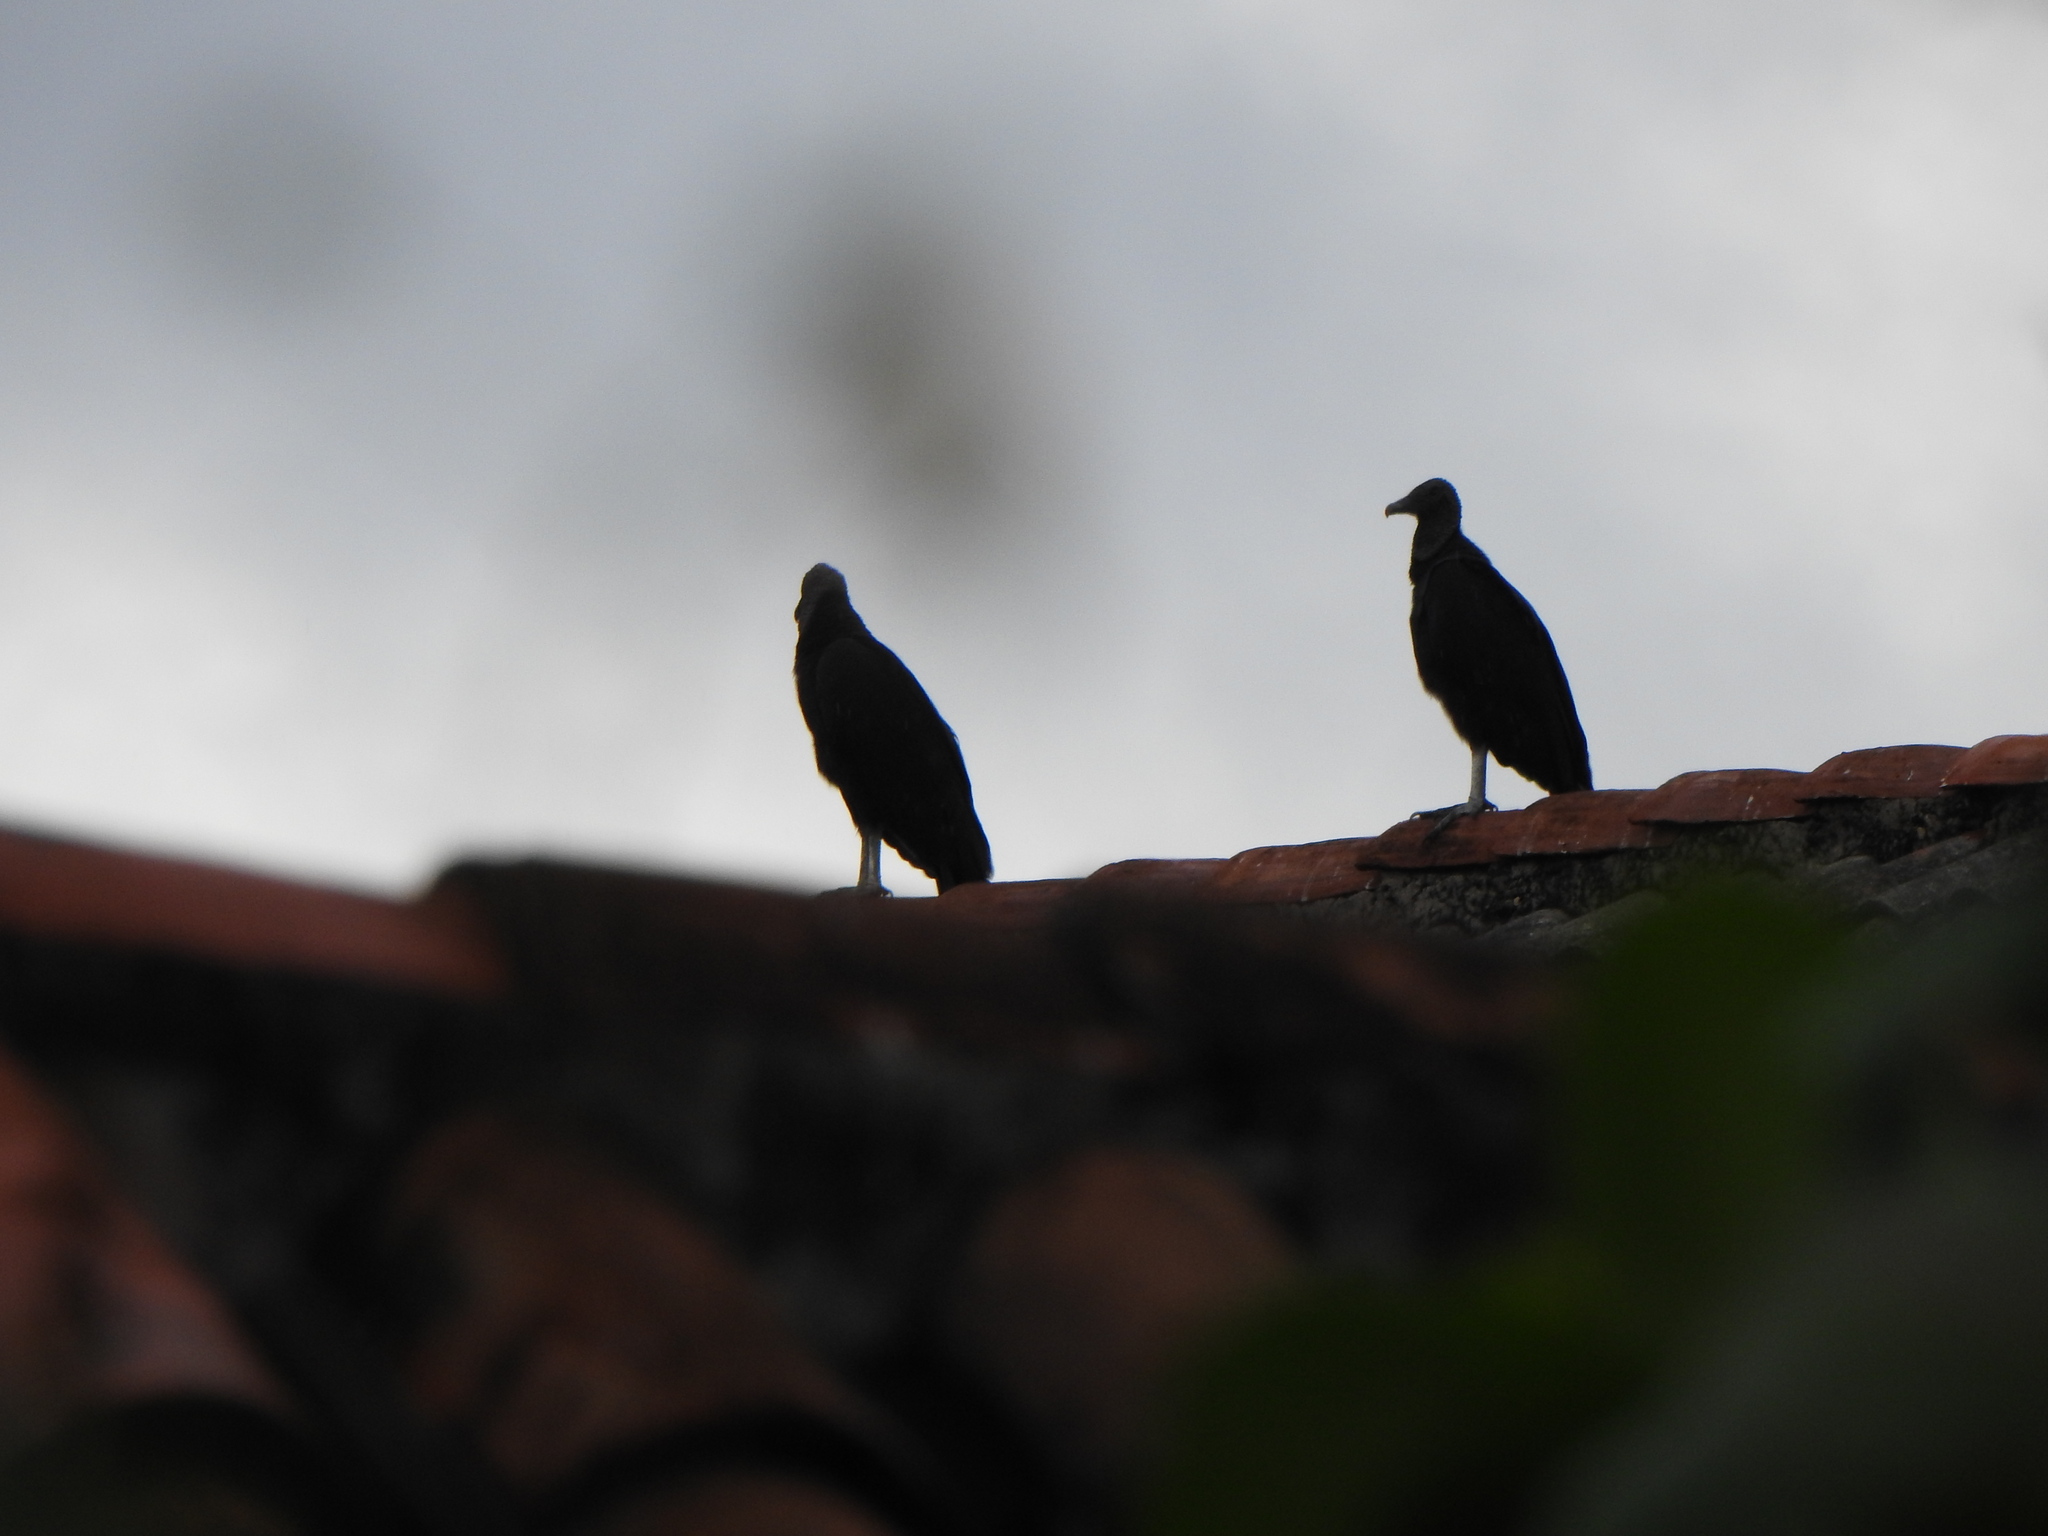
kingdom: Animalia
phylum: Chordata
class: Aves
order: Accipitriformes
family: Cathartidae
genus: Coragyps
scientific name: Coragyps atratus
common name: Black vulture
